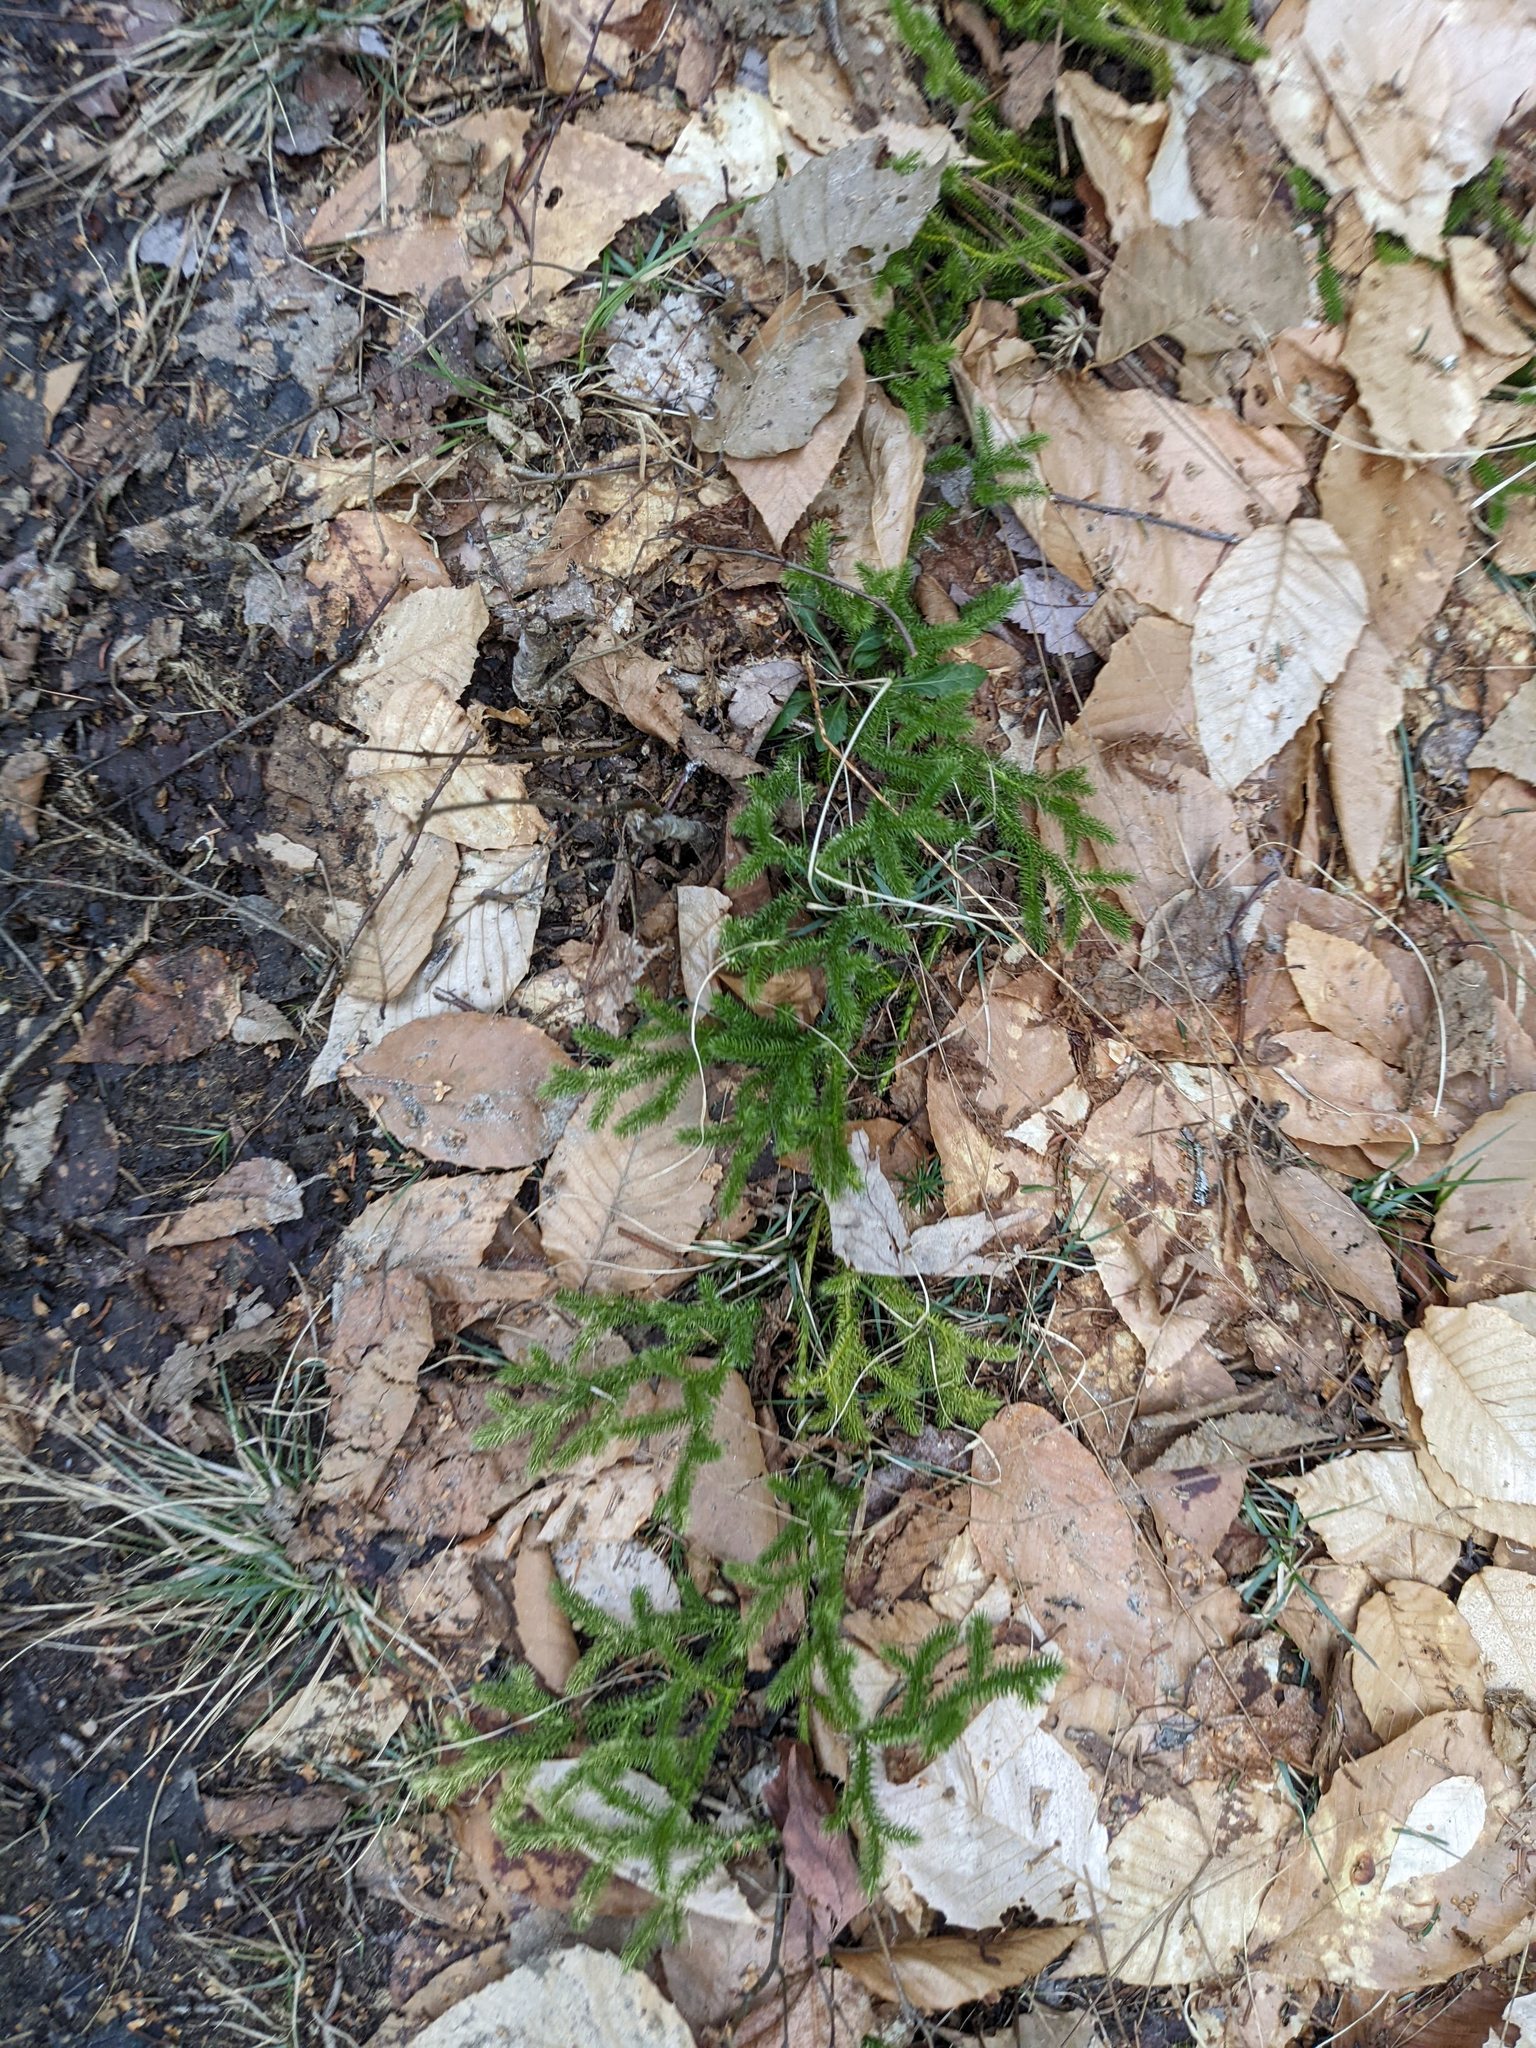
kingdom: Plantae
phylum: Tracheophyta
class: Magnoliopsida
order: Fagales
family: Fagaceae
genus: Fagus
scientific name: Fagus grandifolia
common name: American beech
